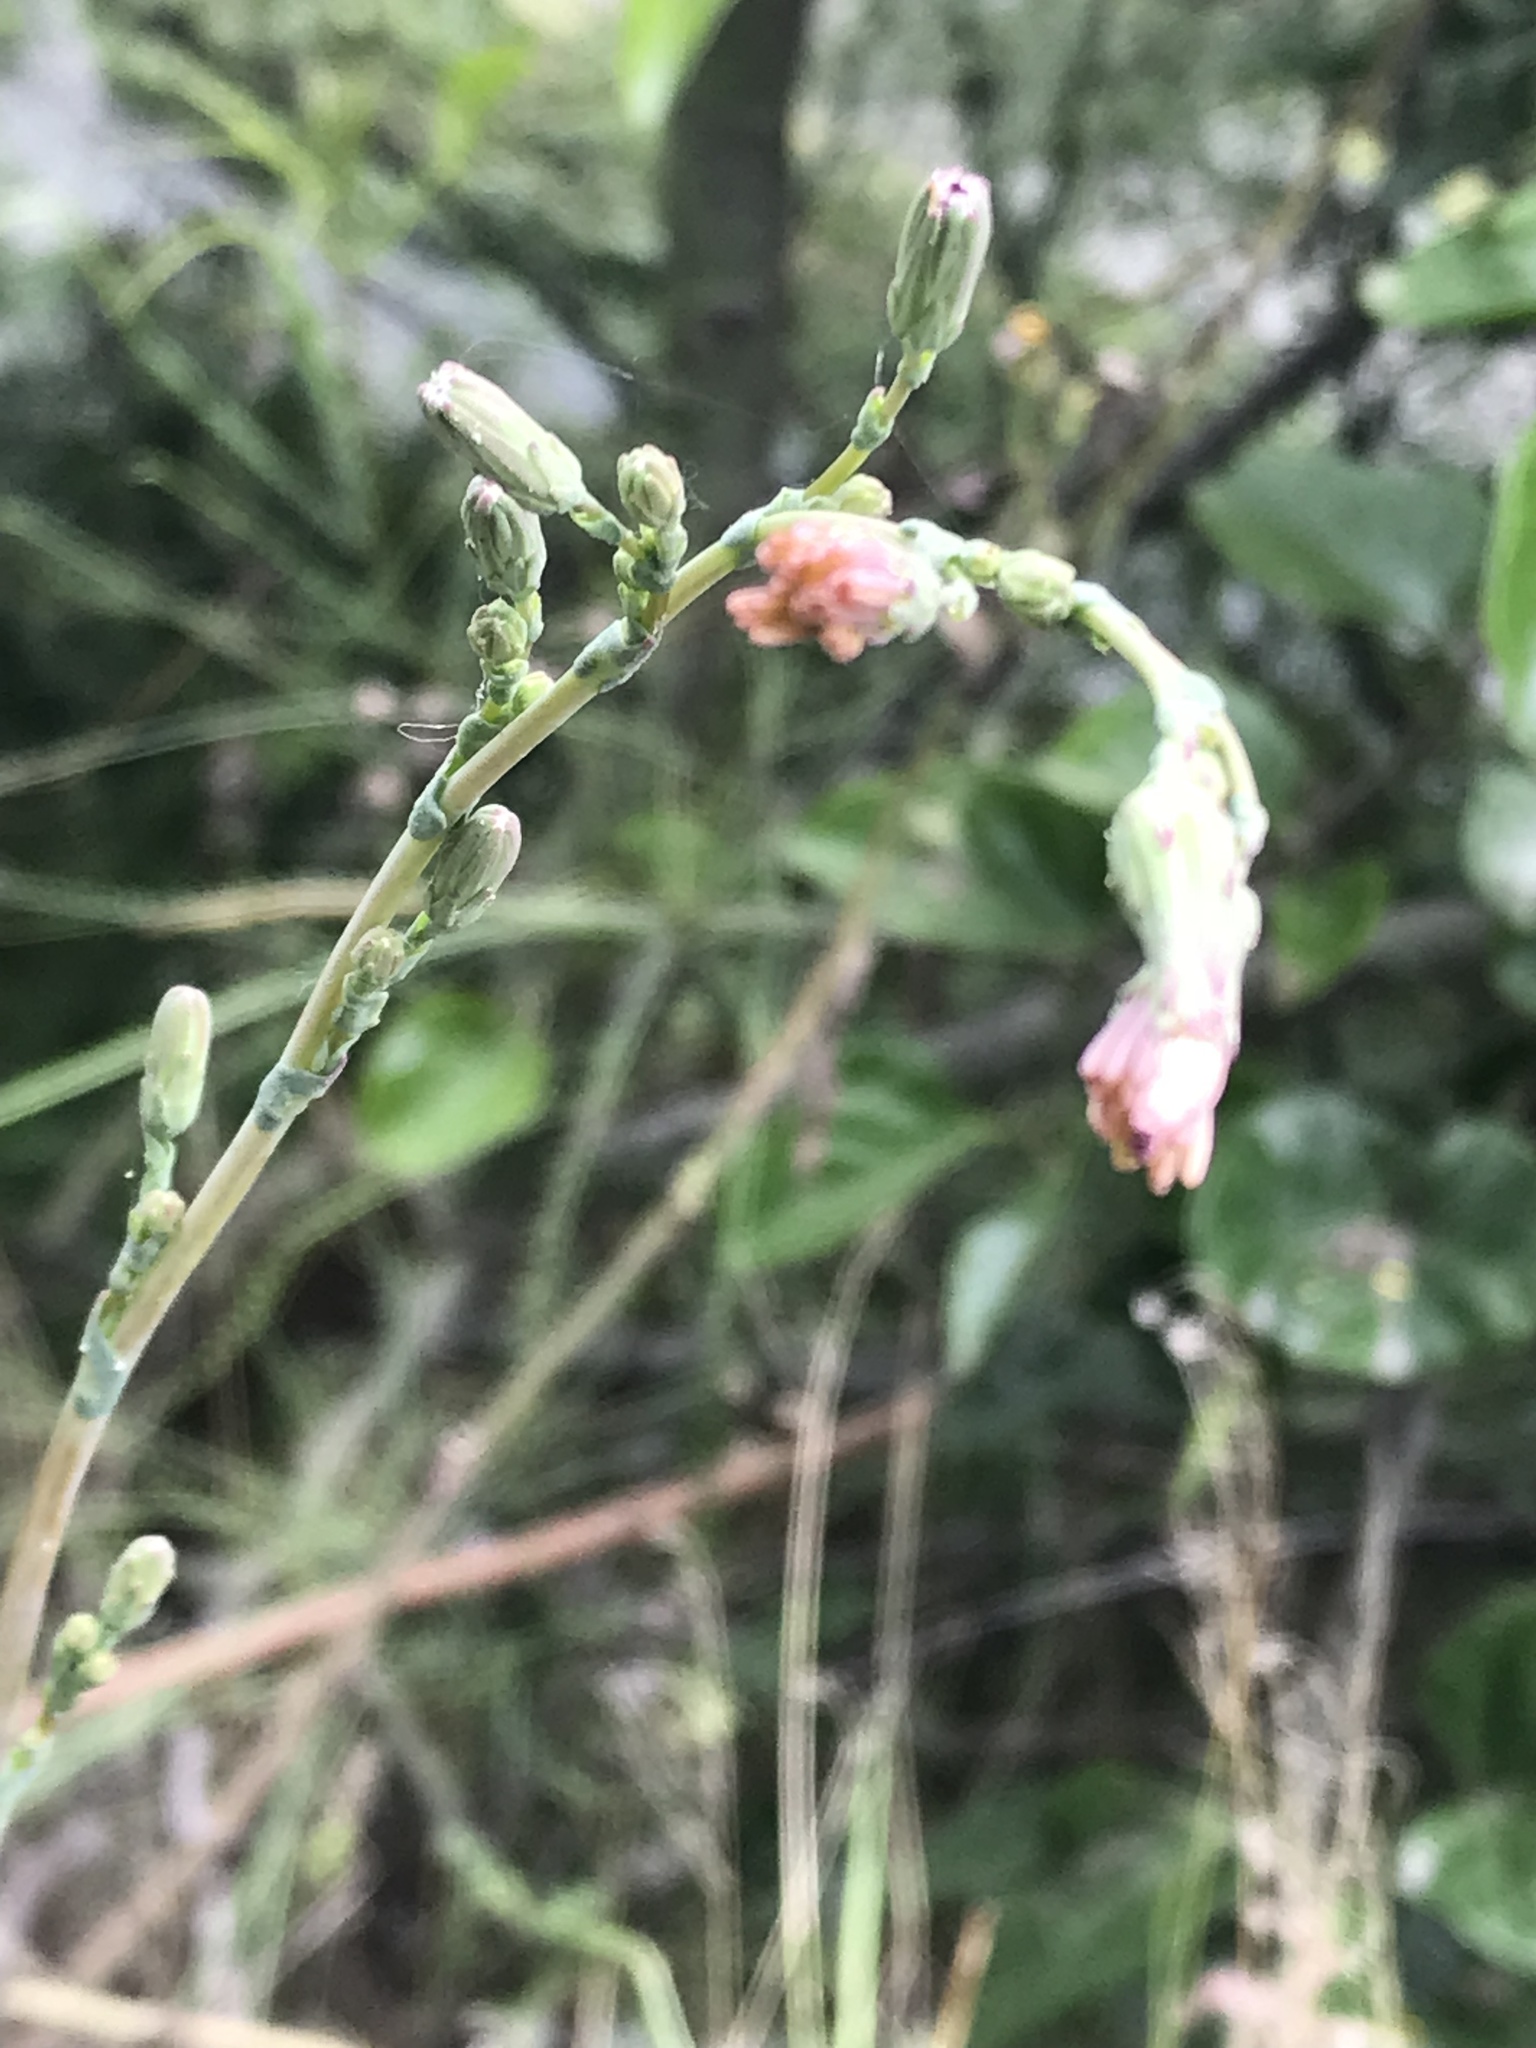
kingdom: Plantae
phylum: Tracheophyta
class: Magnoliopsida
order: Asterales
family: Asteraceae
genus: Lactuca
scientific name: Lactuca serriola
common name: Prickly lettuce
